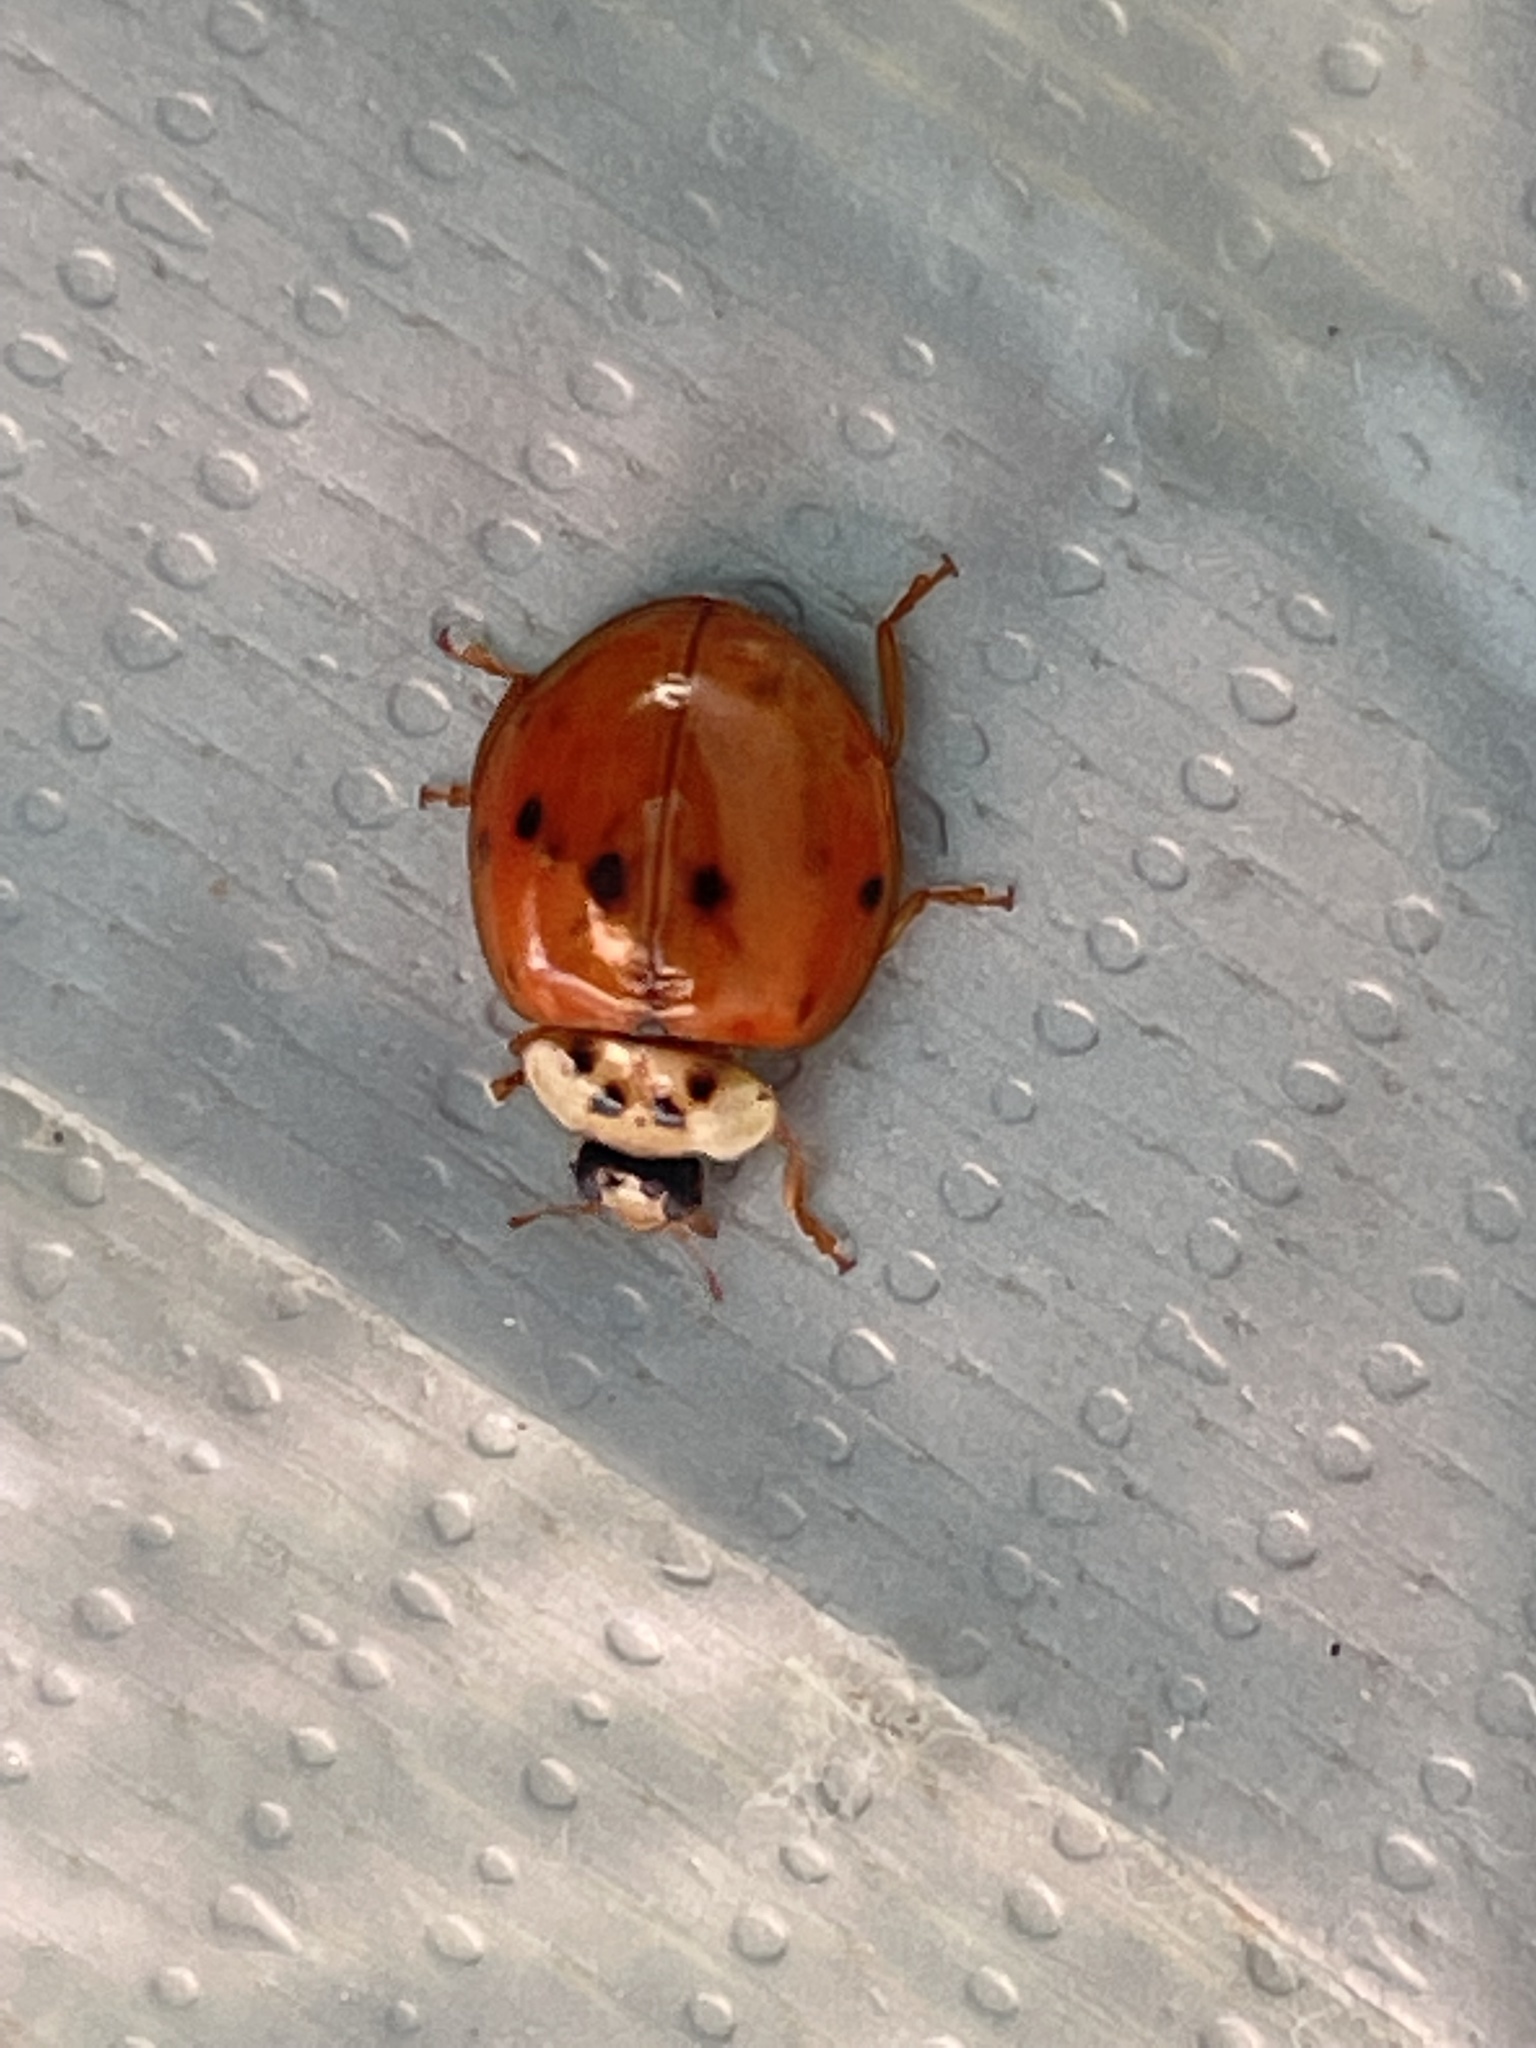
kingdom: Animalia
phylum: Arthropoda
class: Insecta
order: Coleoptera
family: Coccinellidae
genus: Harmonia
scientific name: Harmonia axyridis
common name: Harlequin ladybird
